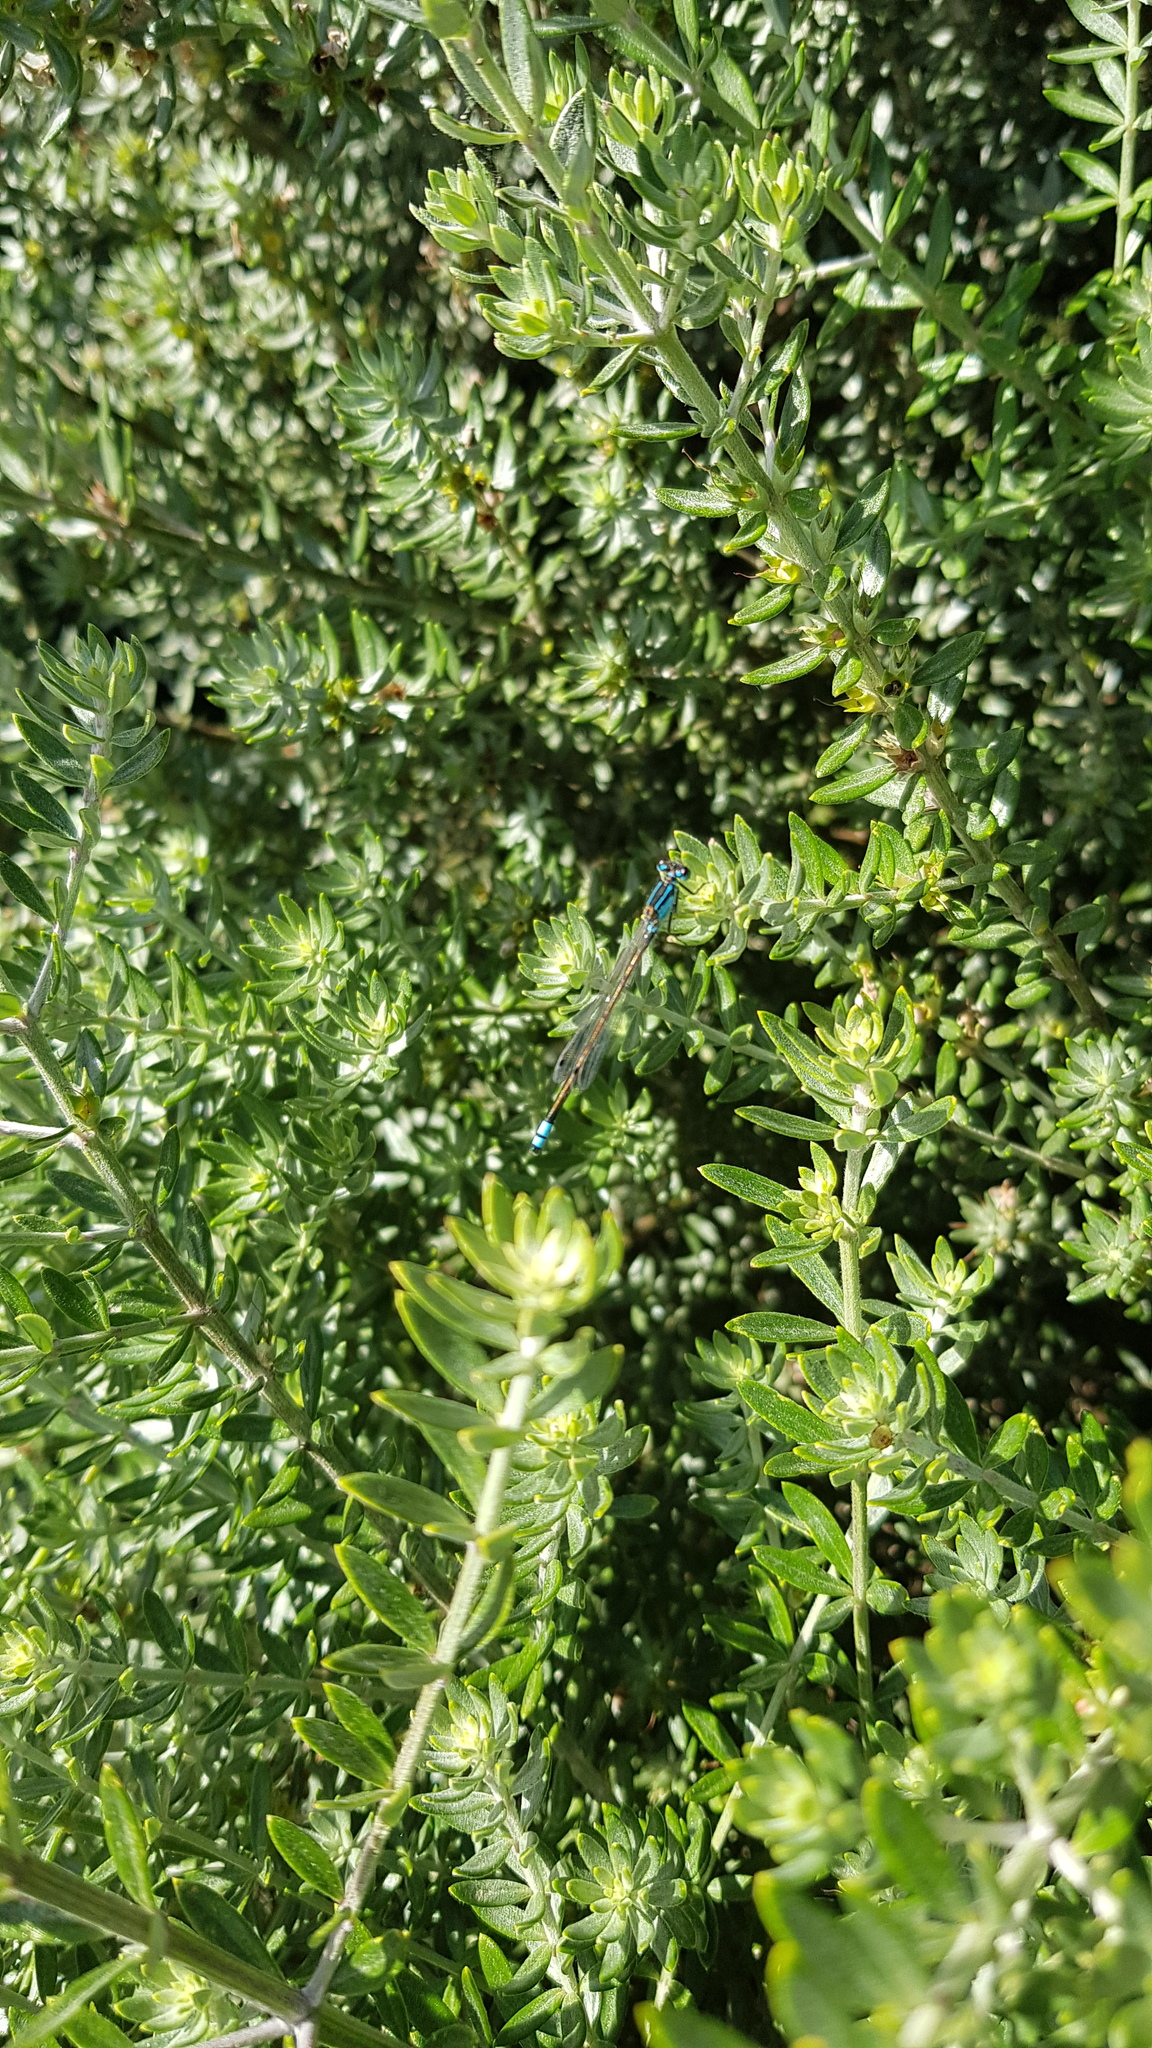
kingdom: Animalia
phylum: Arthropoda
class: Insecta
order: Odonata
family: Coenagrionidae
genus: Ischnura
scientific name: Ischnura heterosticta
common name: Common bluetail
